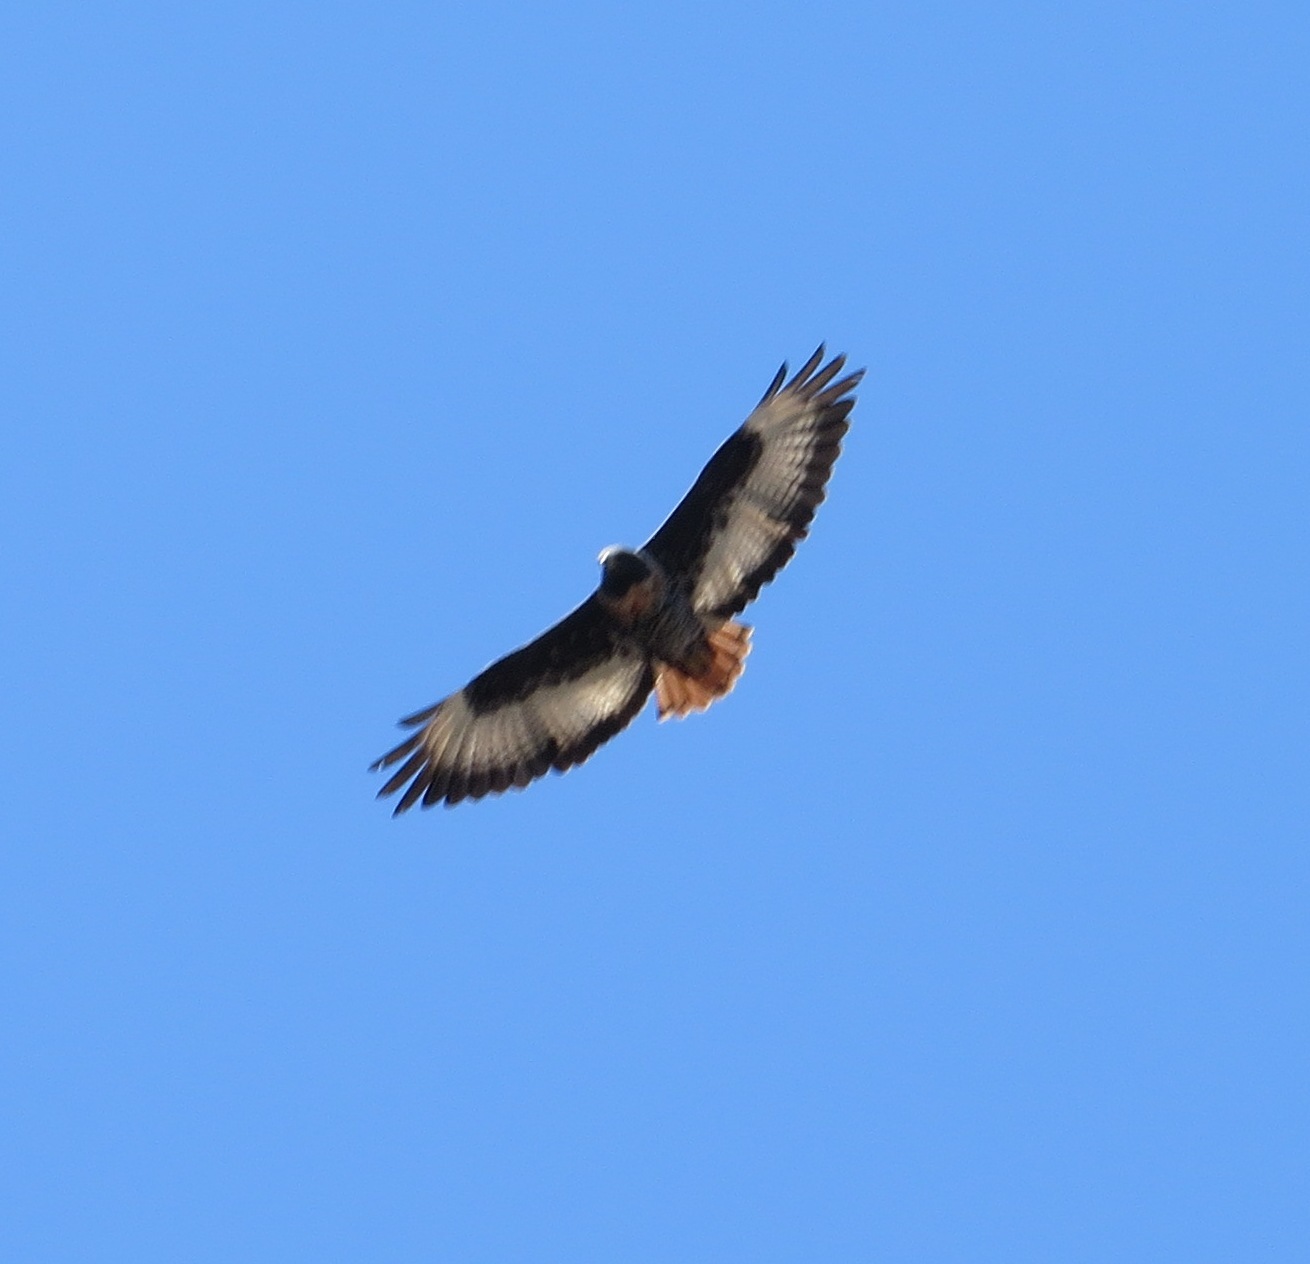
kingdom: Animalia
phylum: Chordata
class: Aves
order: Accipitriformes
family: Accipitridae
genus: Buteo
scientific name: Buteo rufofuscus
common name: Jackal buzzard
